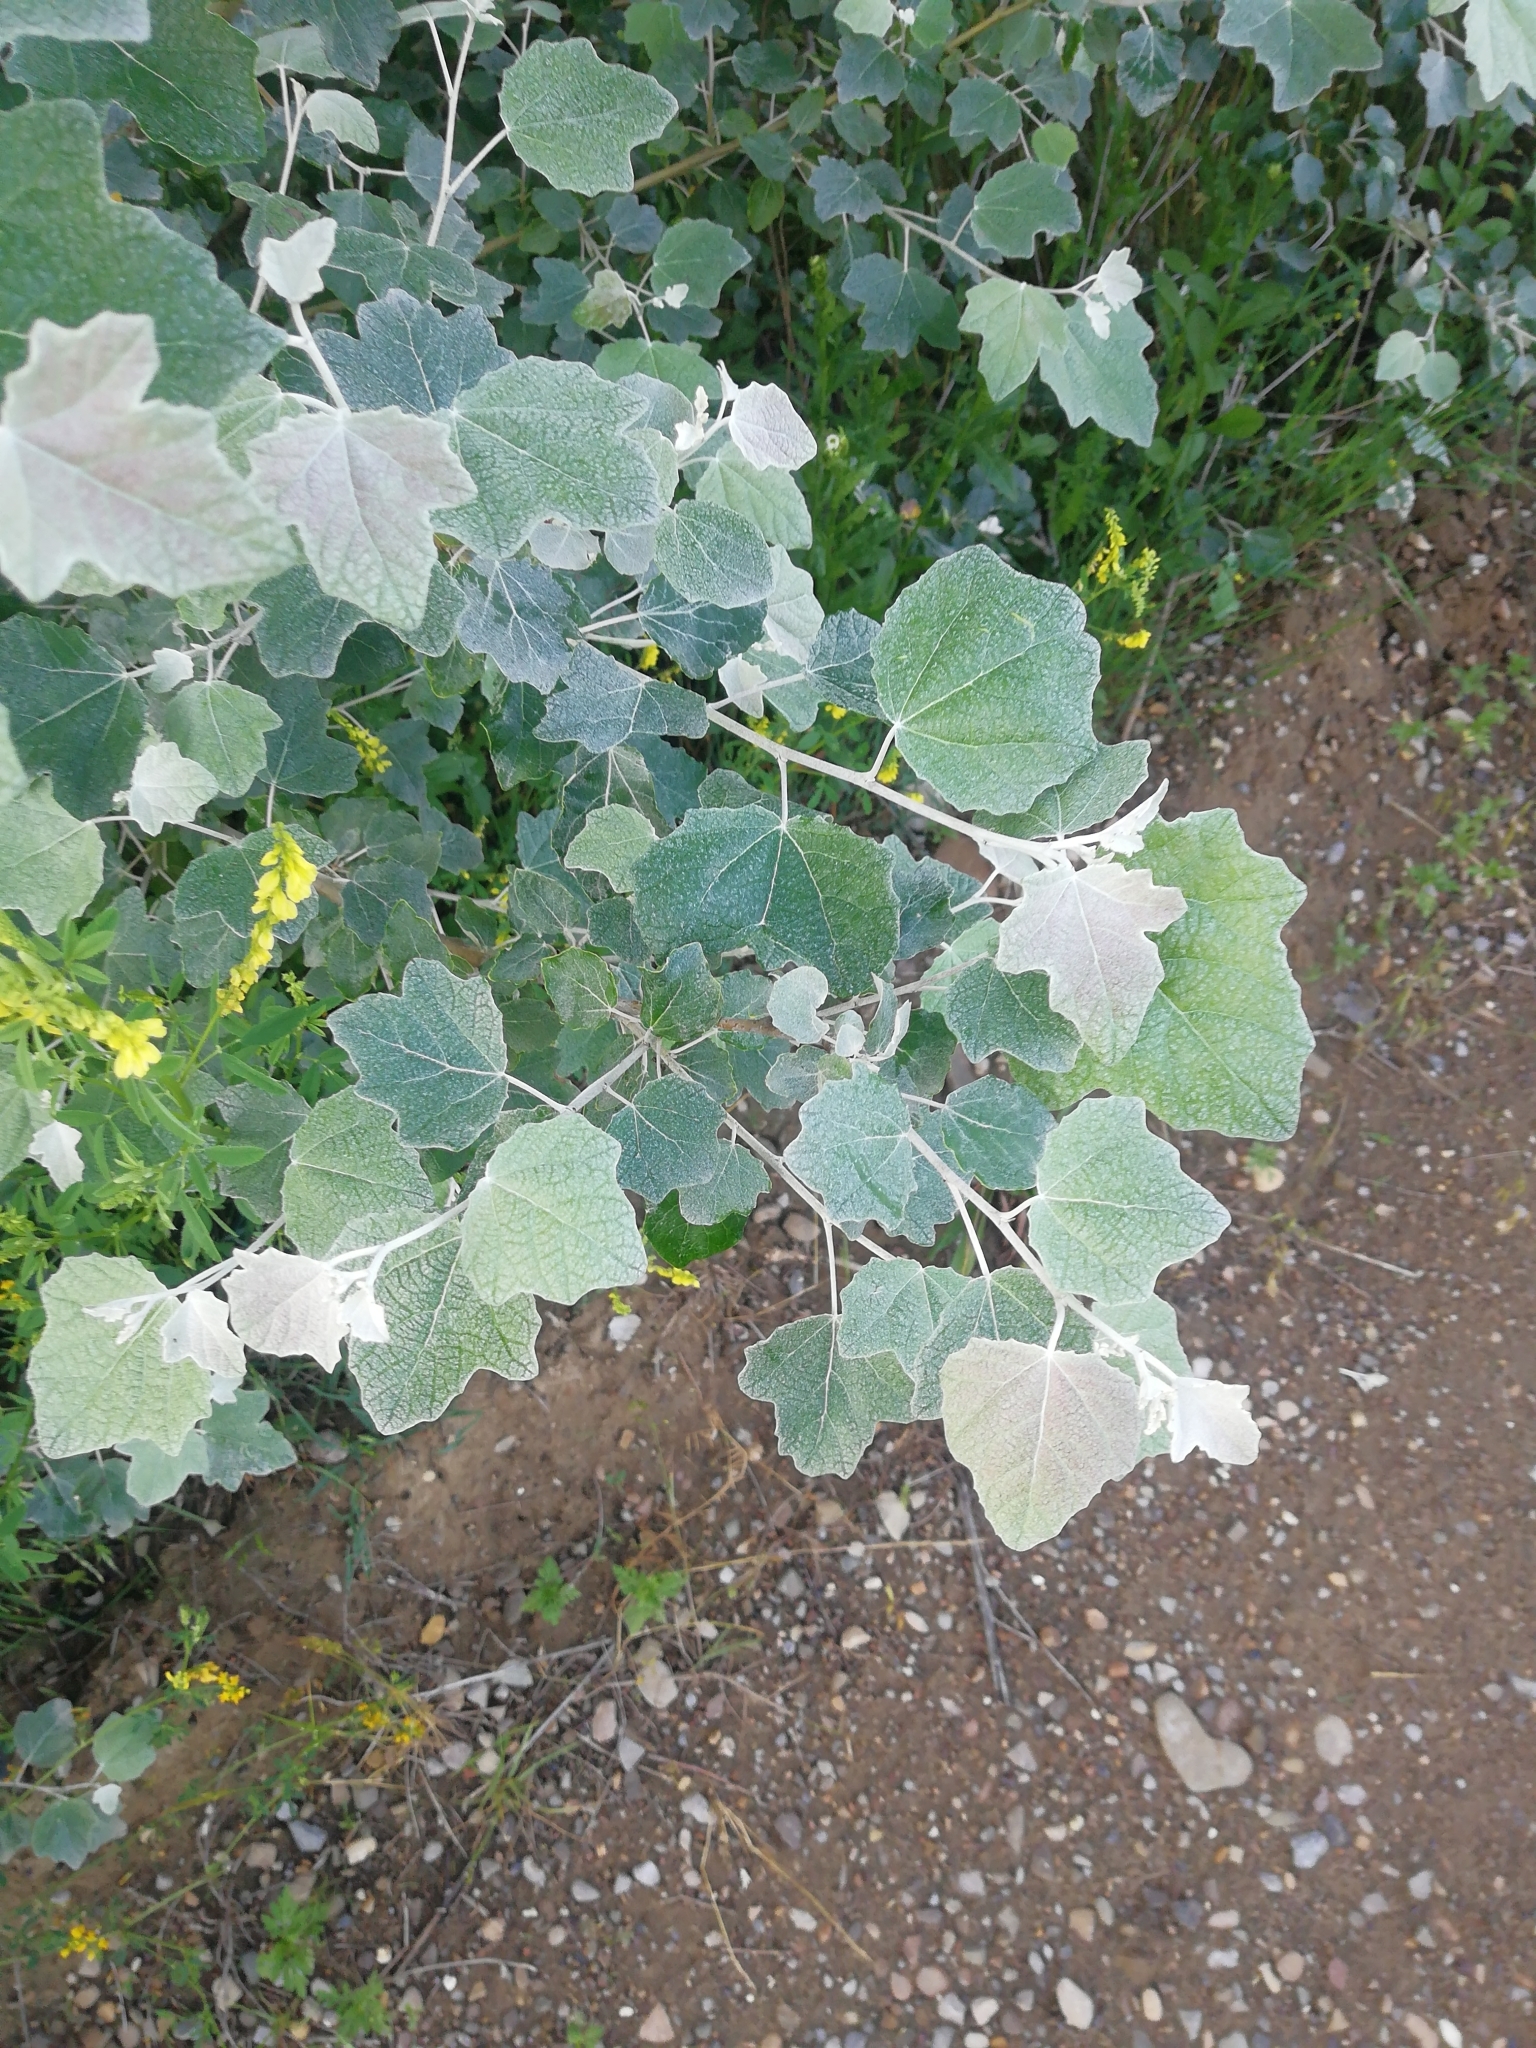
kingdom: Plantae
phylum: Tracheophyta
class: Magnoliopsida
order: Malpighiales
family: Salicaceae
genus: Populus
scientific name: Populus alba
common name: White poplar
